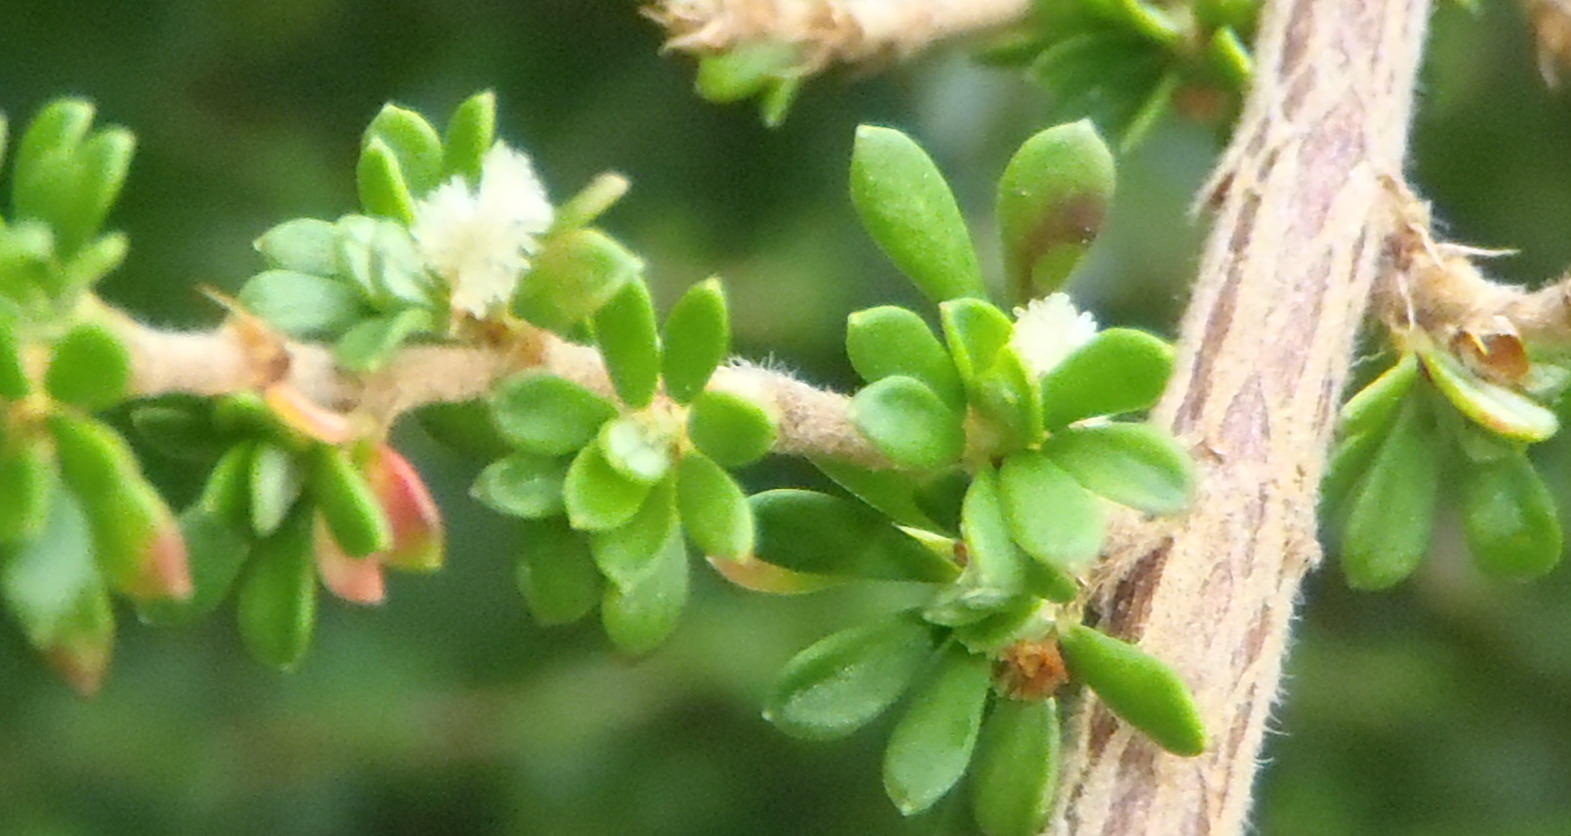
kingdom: Plantae
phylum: Tracheophyta
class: Magnoliopsida
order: Rosales
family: Rosaceae
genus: Cliffortia
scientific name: Cliffortia serpyllifolia
